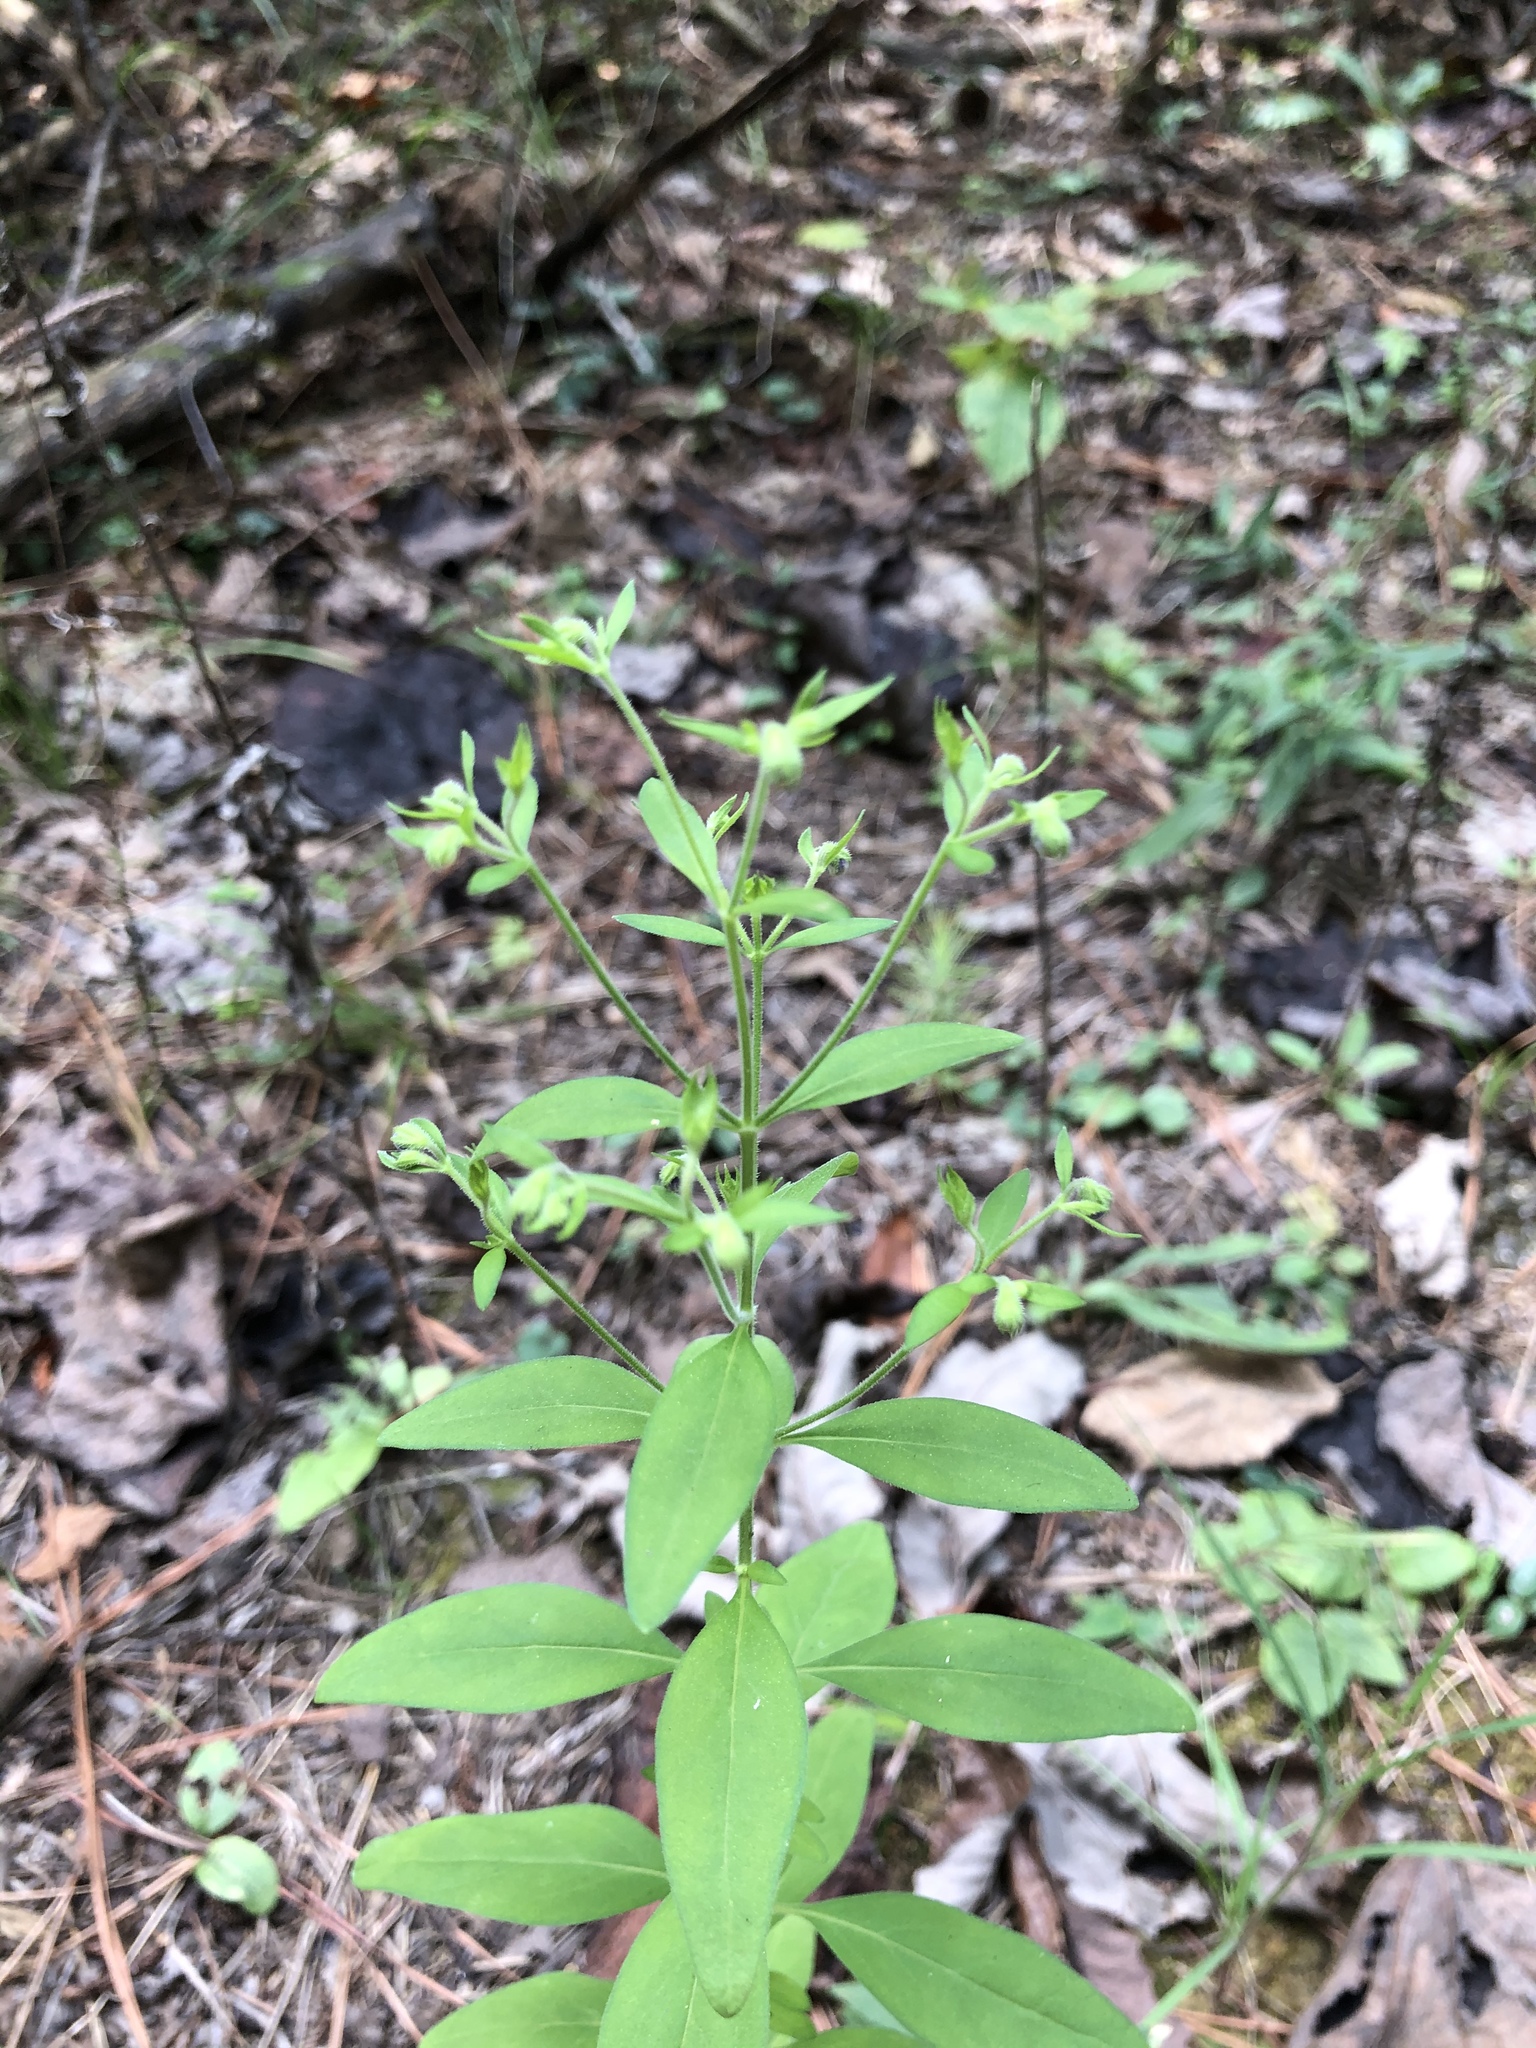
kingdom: Plantae
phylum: Tracheophyta
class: Magnoliopsida
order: Lamiales
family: Lamiaceae
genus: Trichostema
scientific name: Trichostema dichotomum
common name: Bastard pennyroyal
